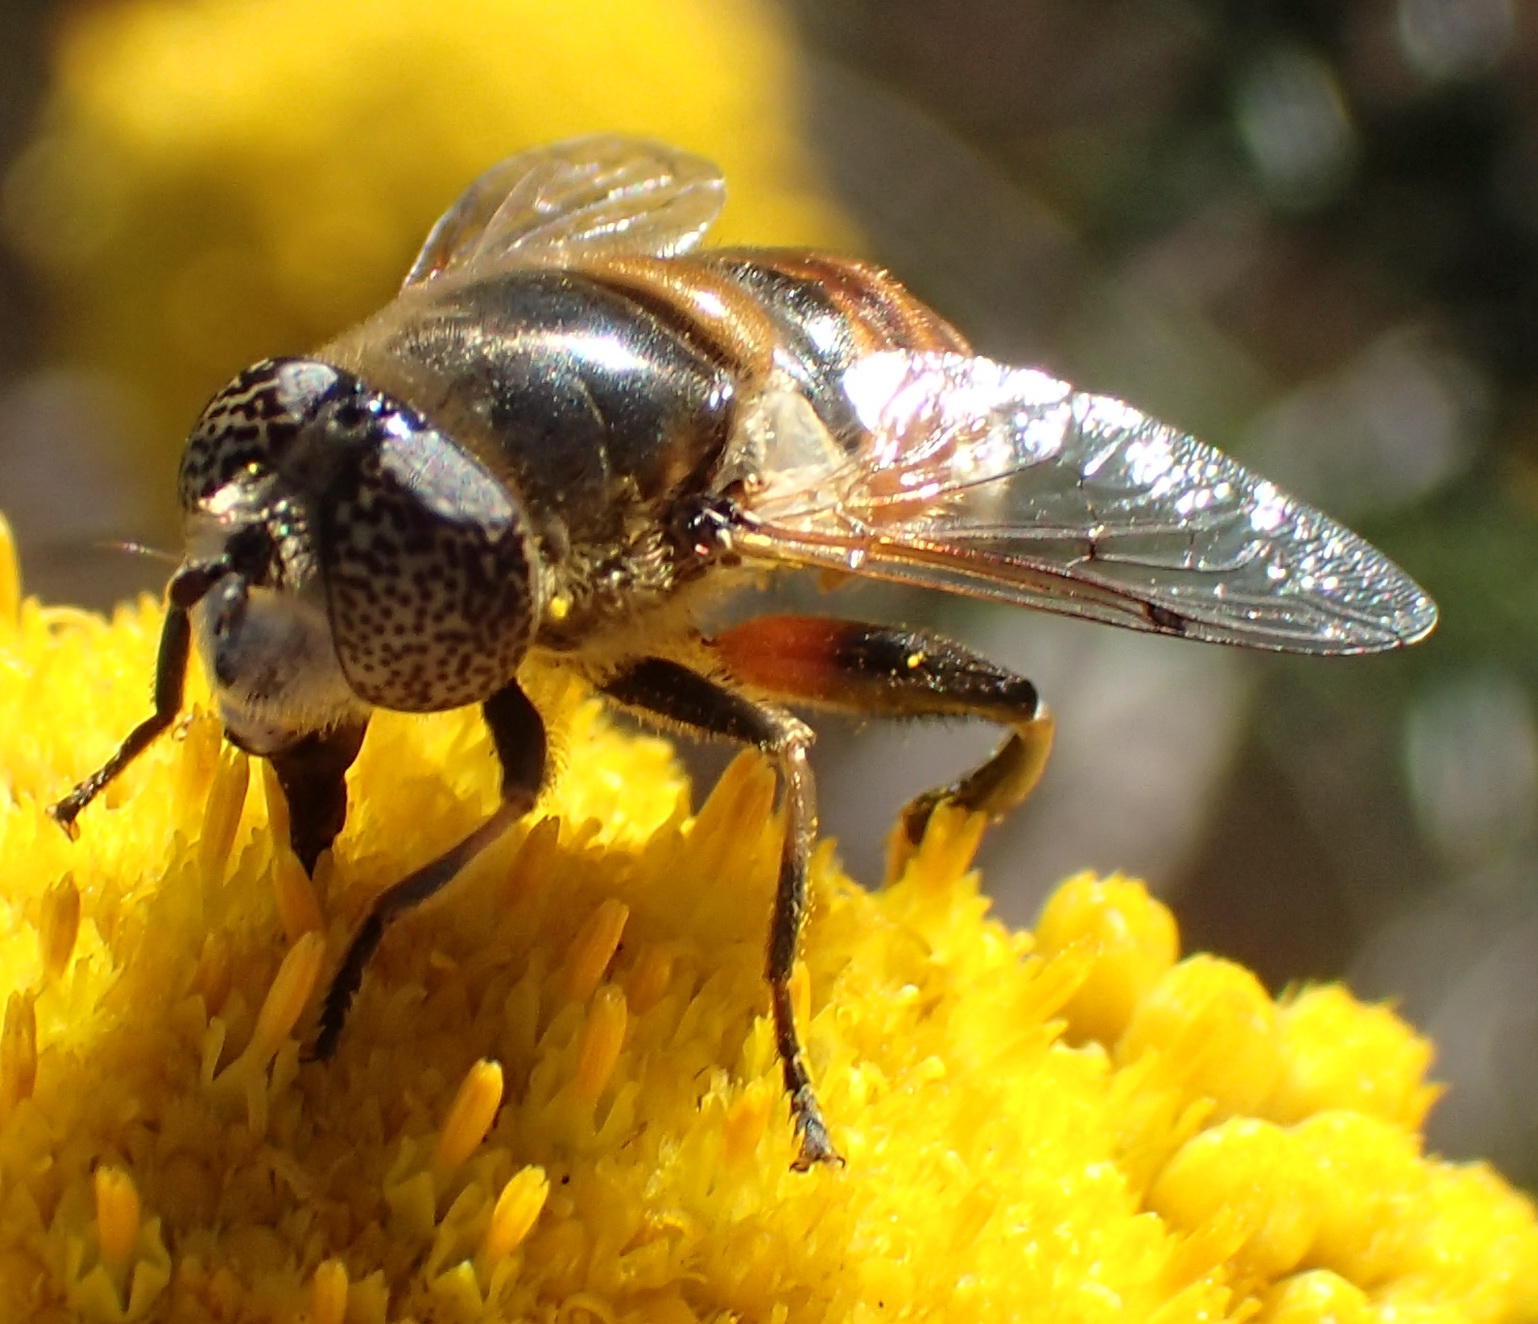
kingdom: Animalia
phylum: Arthropoda
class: Insecta
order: Diptera
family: Syrphidae
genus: Eristalinus
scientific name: Eristalinus modestus
